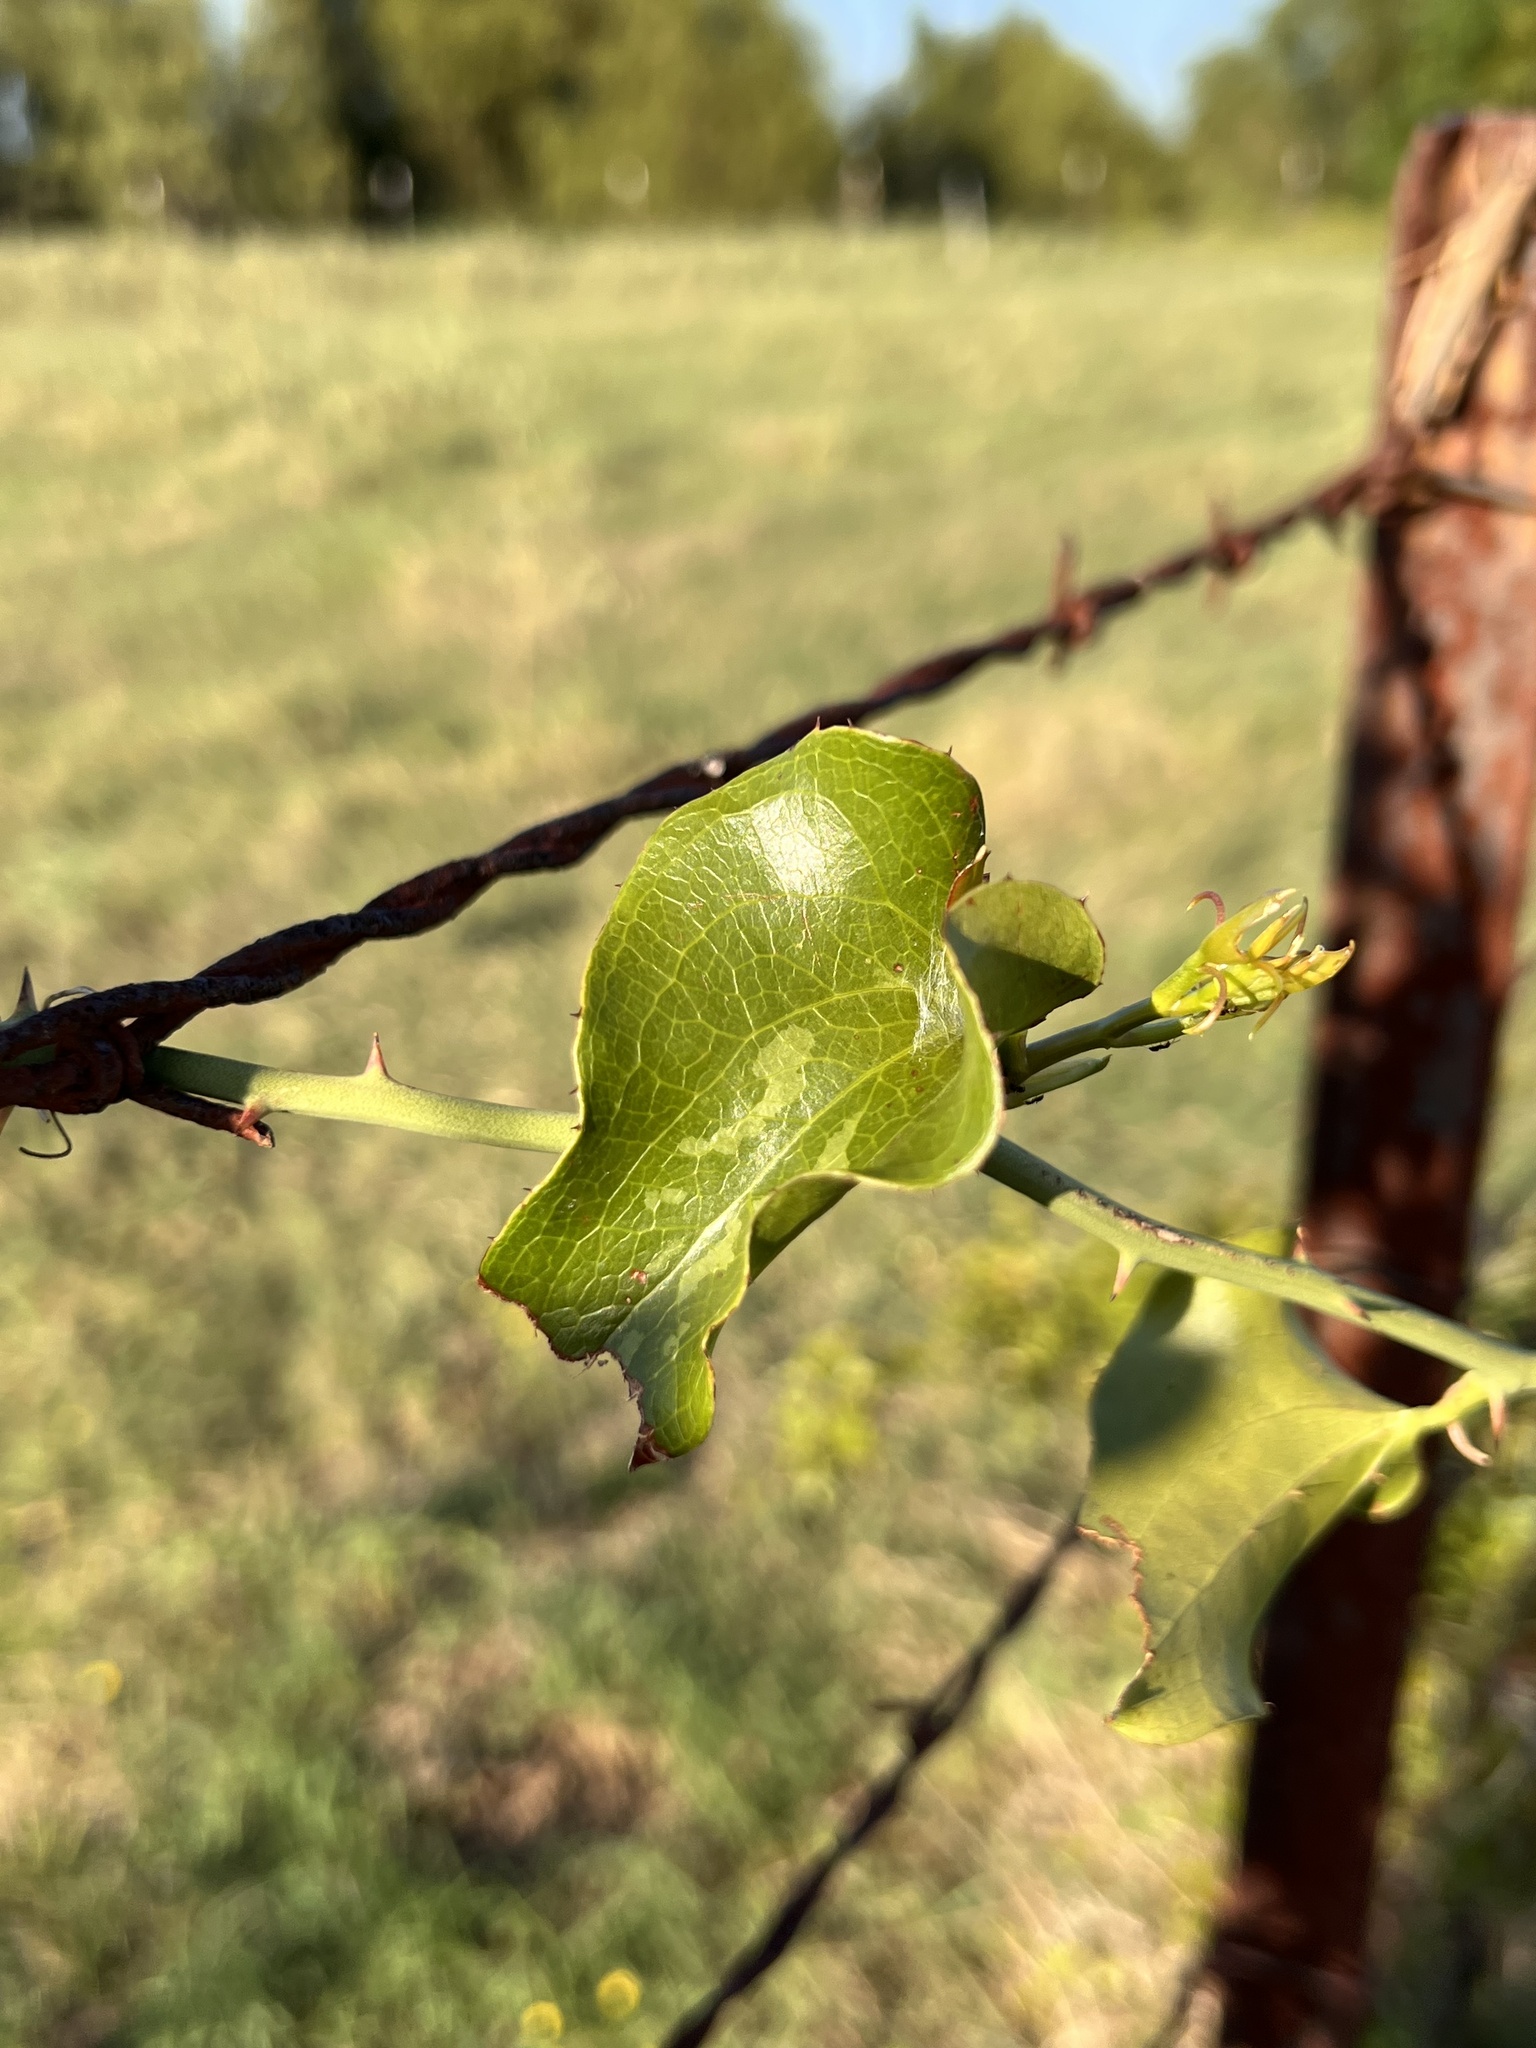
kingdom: Plantae
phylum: Tracheophyta
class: Liliopsida
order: Liliales
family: Smilacaceae
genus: Smilax
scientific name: Smilax bona-nox
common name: Catbrier
